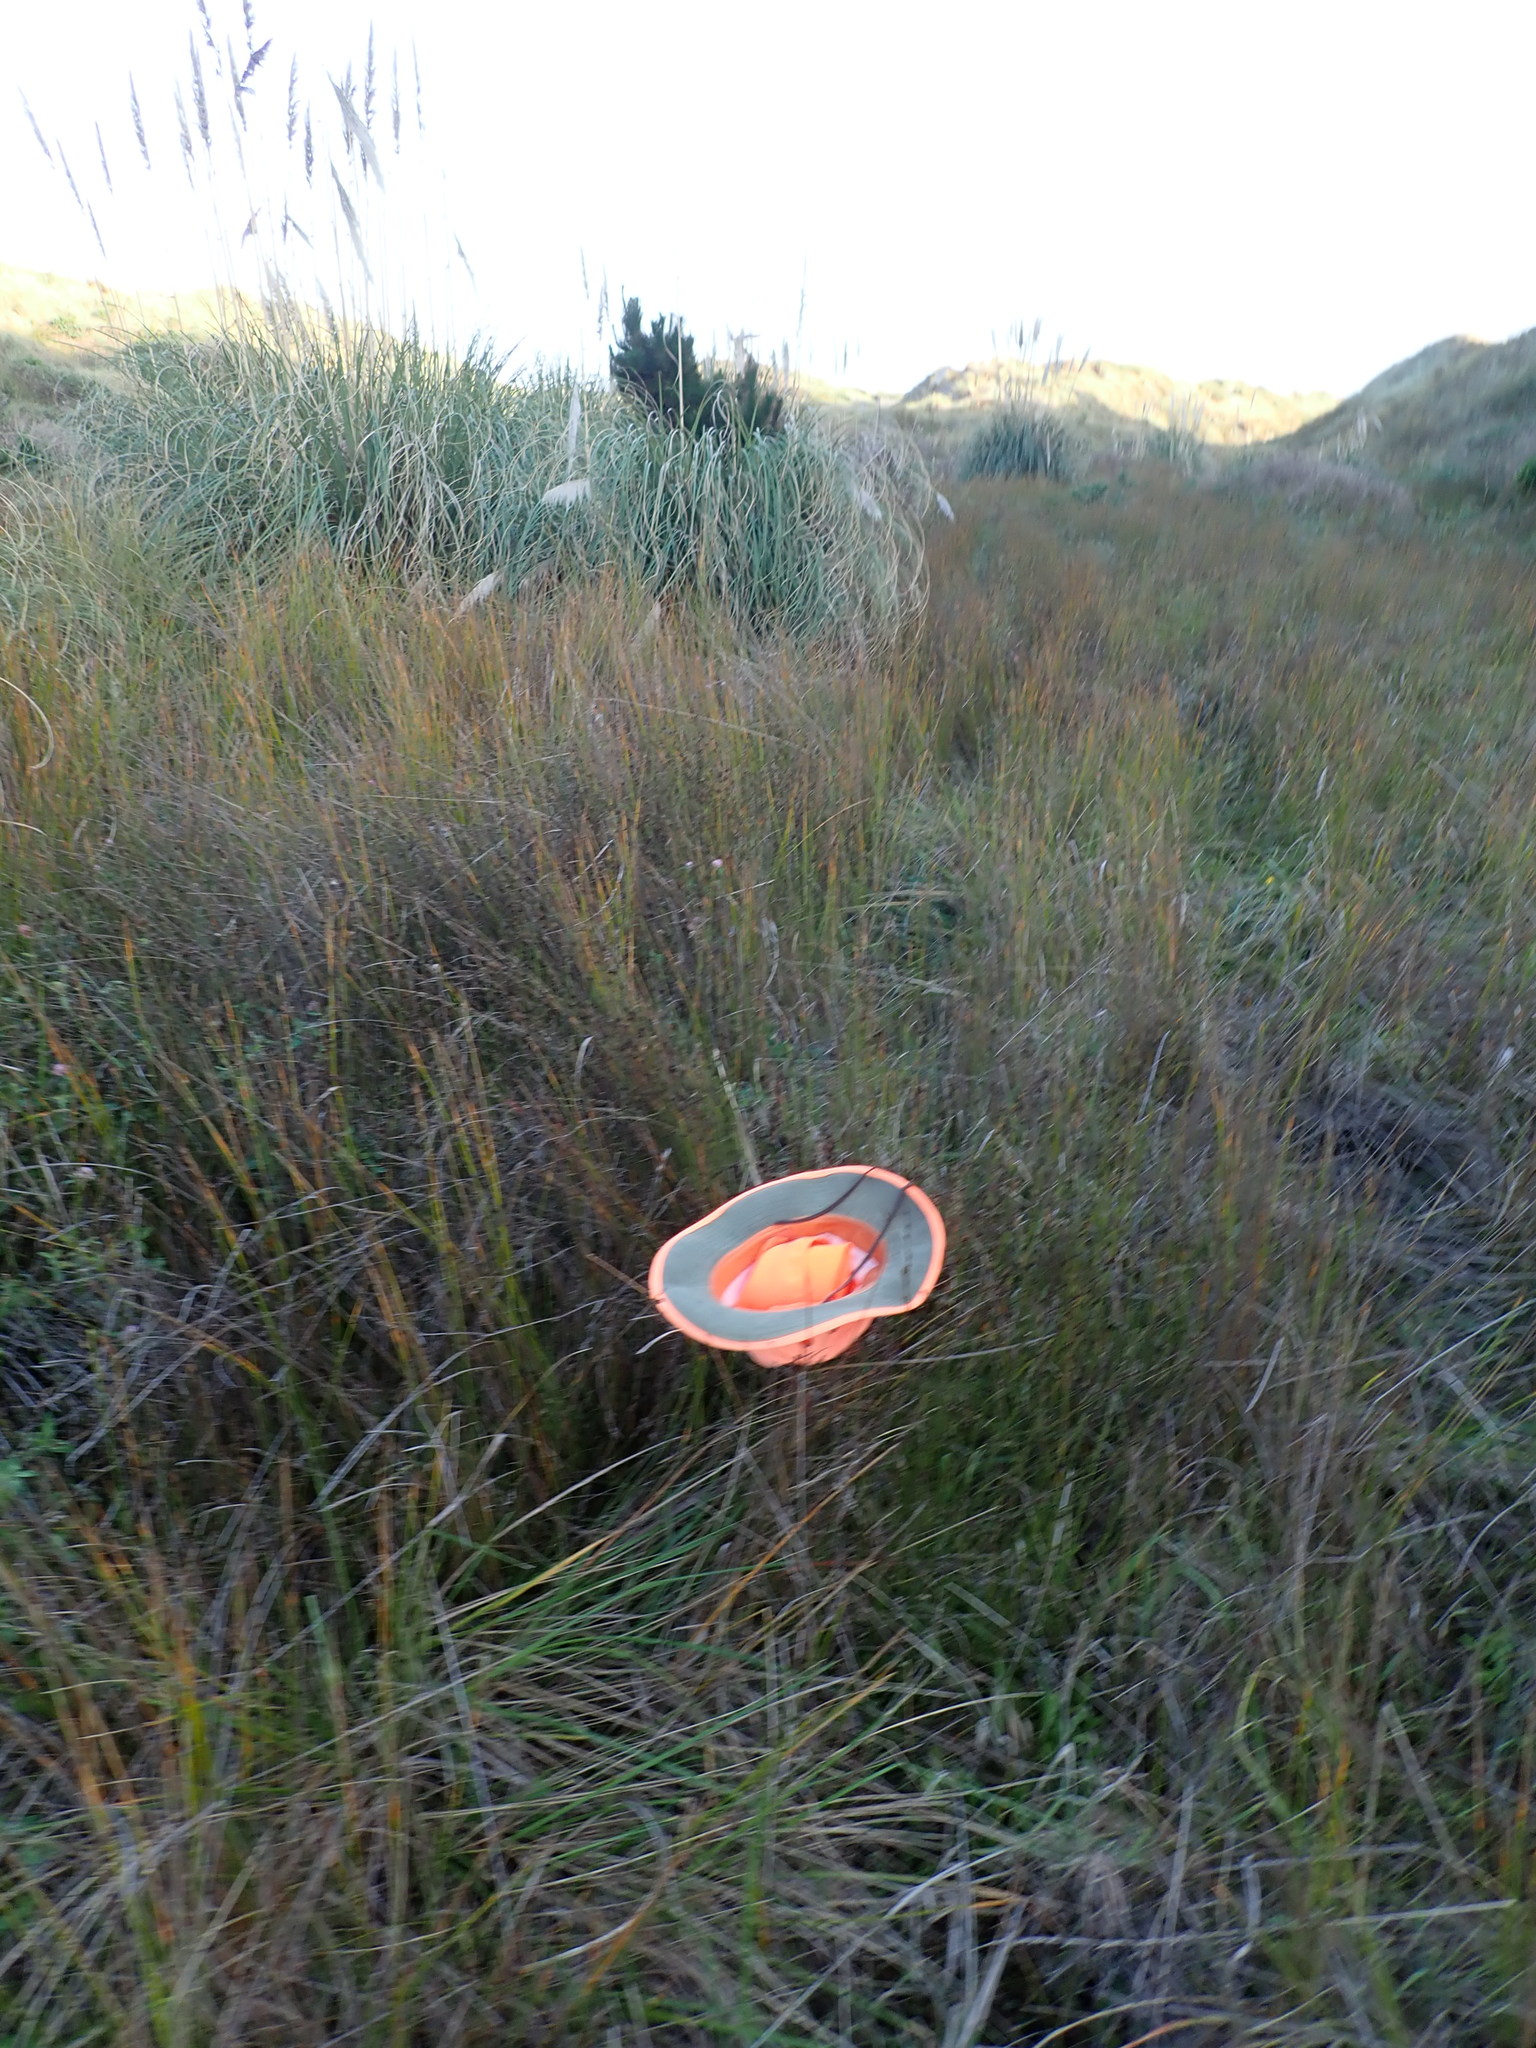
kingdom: Plantae
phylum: Tracheophyta
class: Liliopsida
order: Poales
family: Restionaceae
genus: Apodasmia
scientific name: Apodasmia similis
